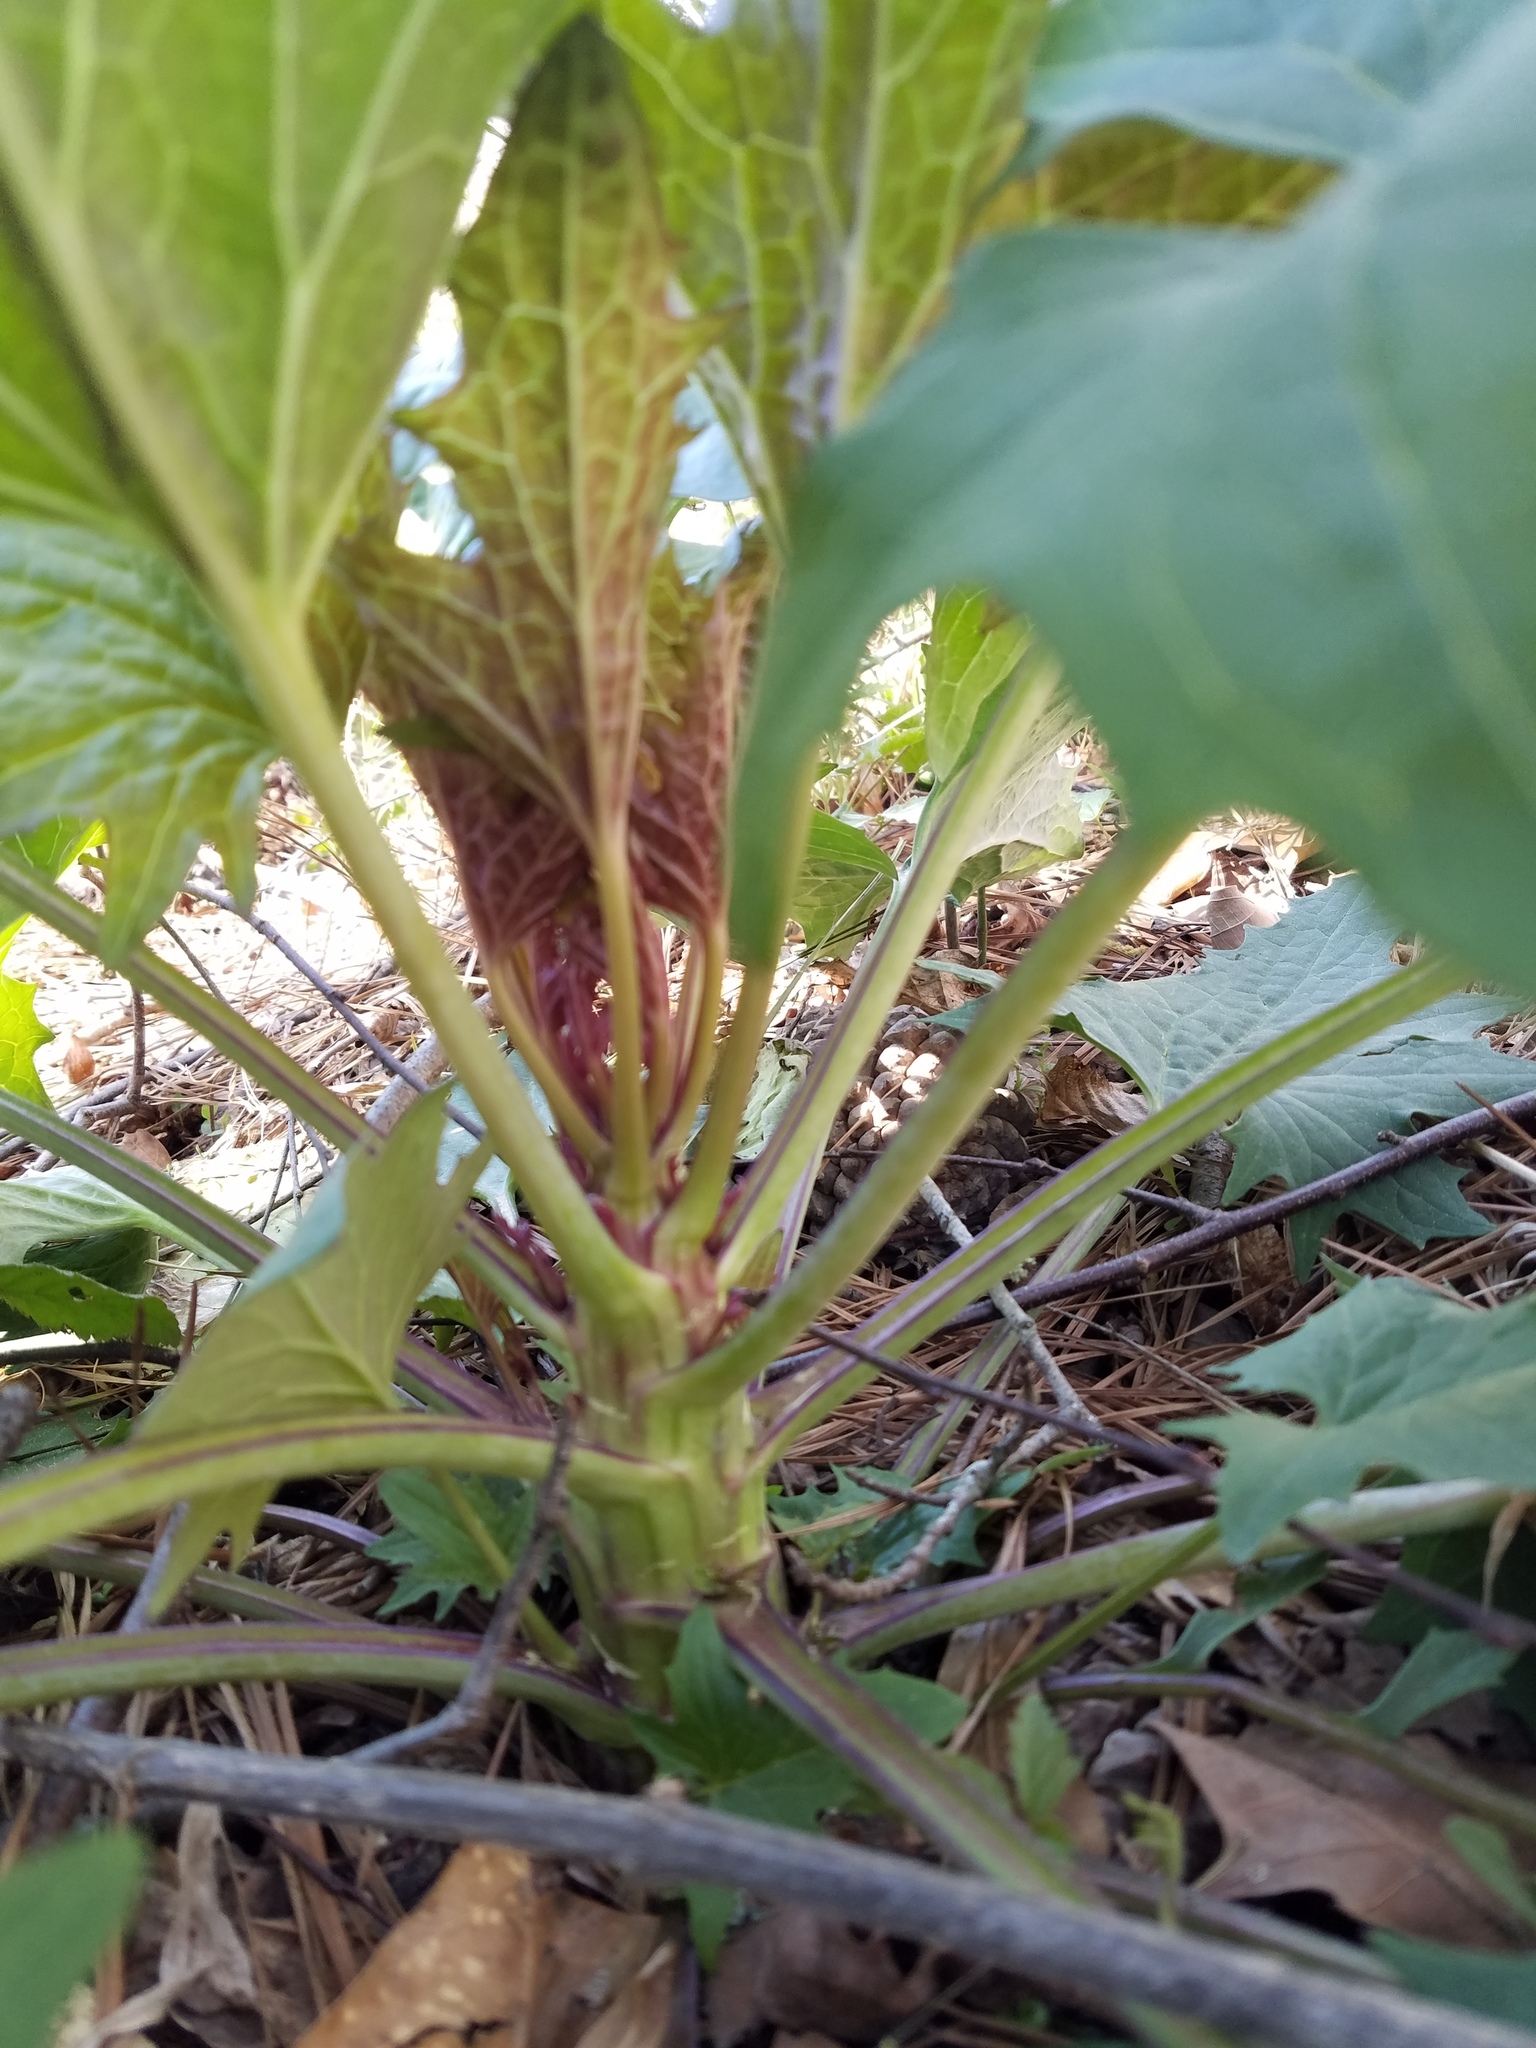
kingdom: Plantae
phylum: Tracheophyta
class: Magnoliopsida
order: Asterales
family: Asteraceae
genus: Arnoglossum
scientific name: Arnoglossum atriplicifolium
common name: Pale indian-plantain
